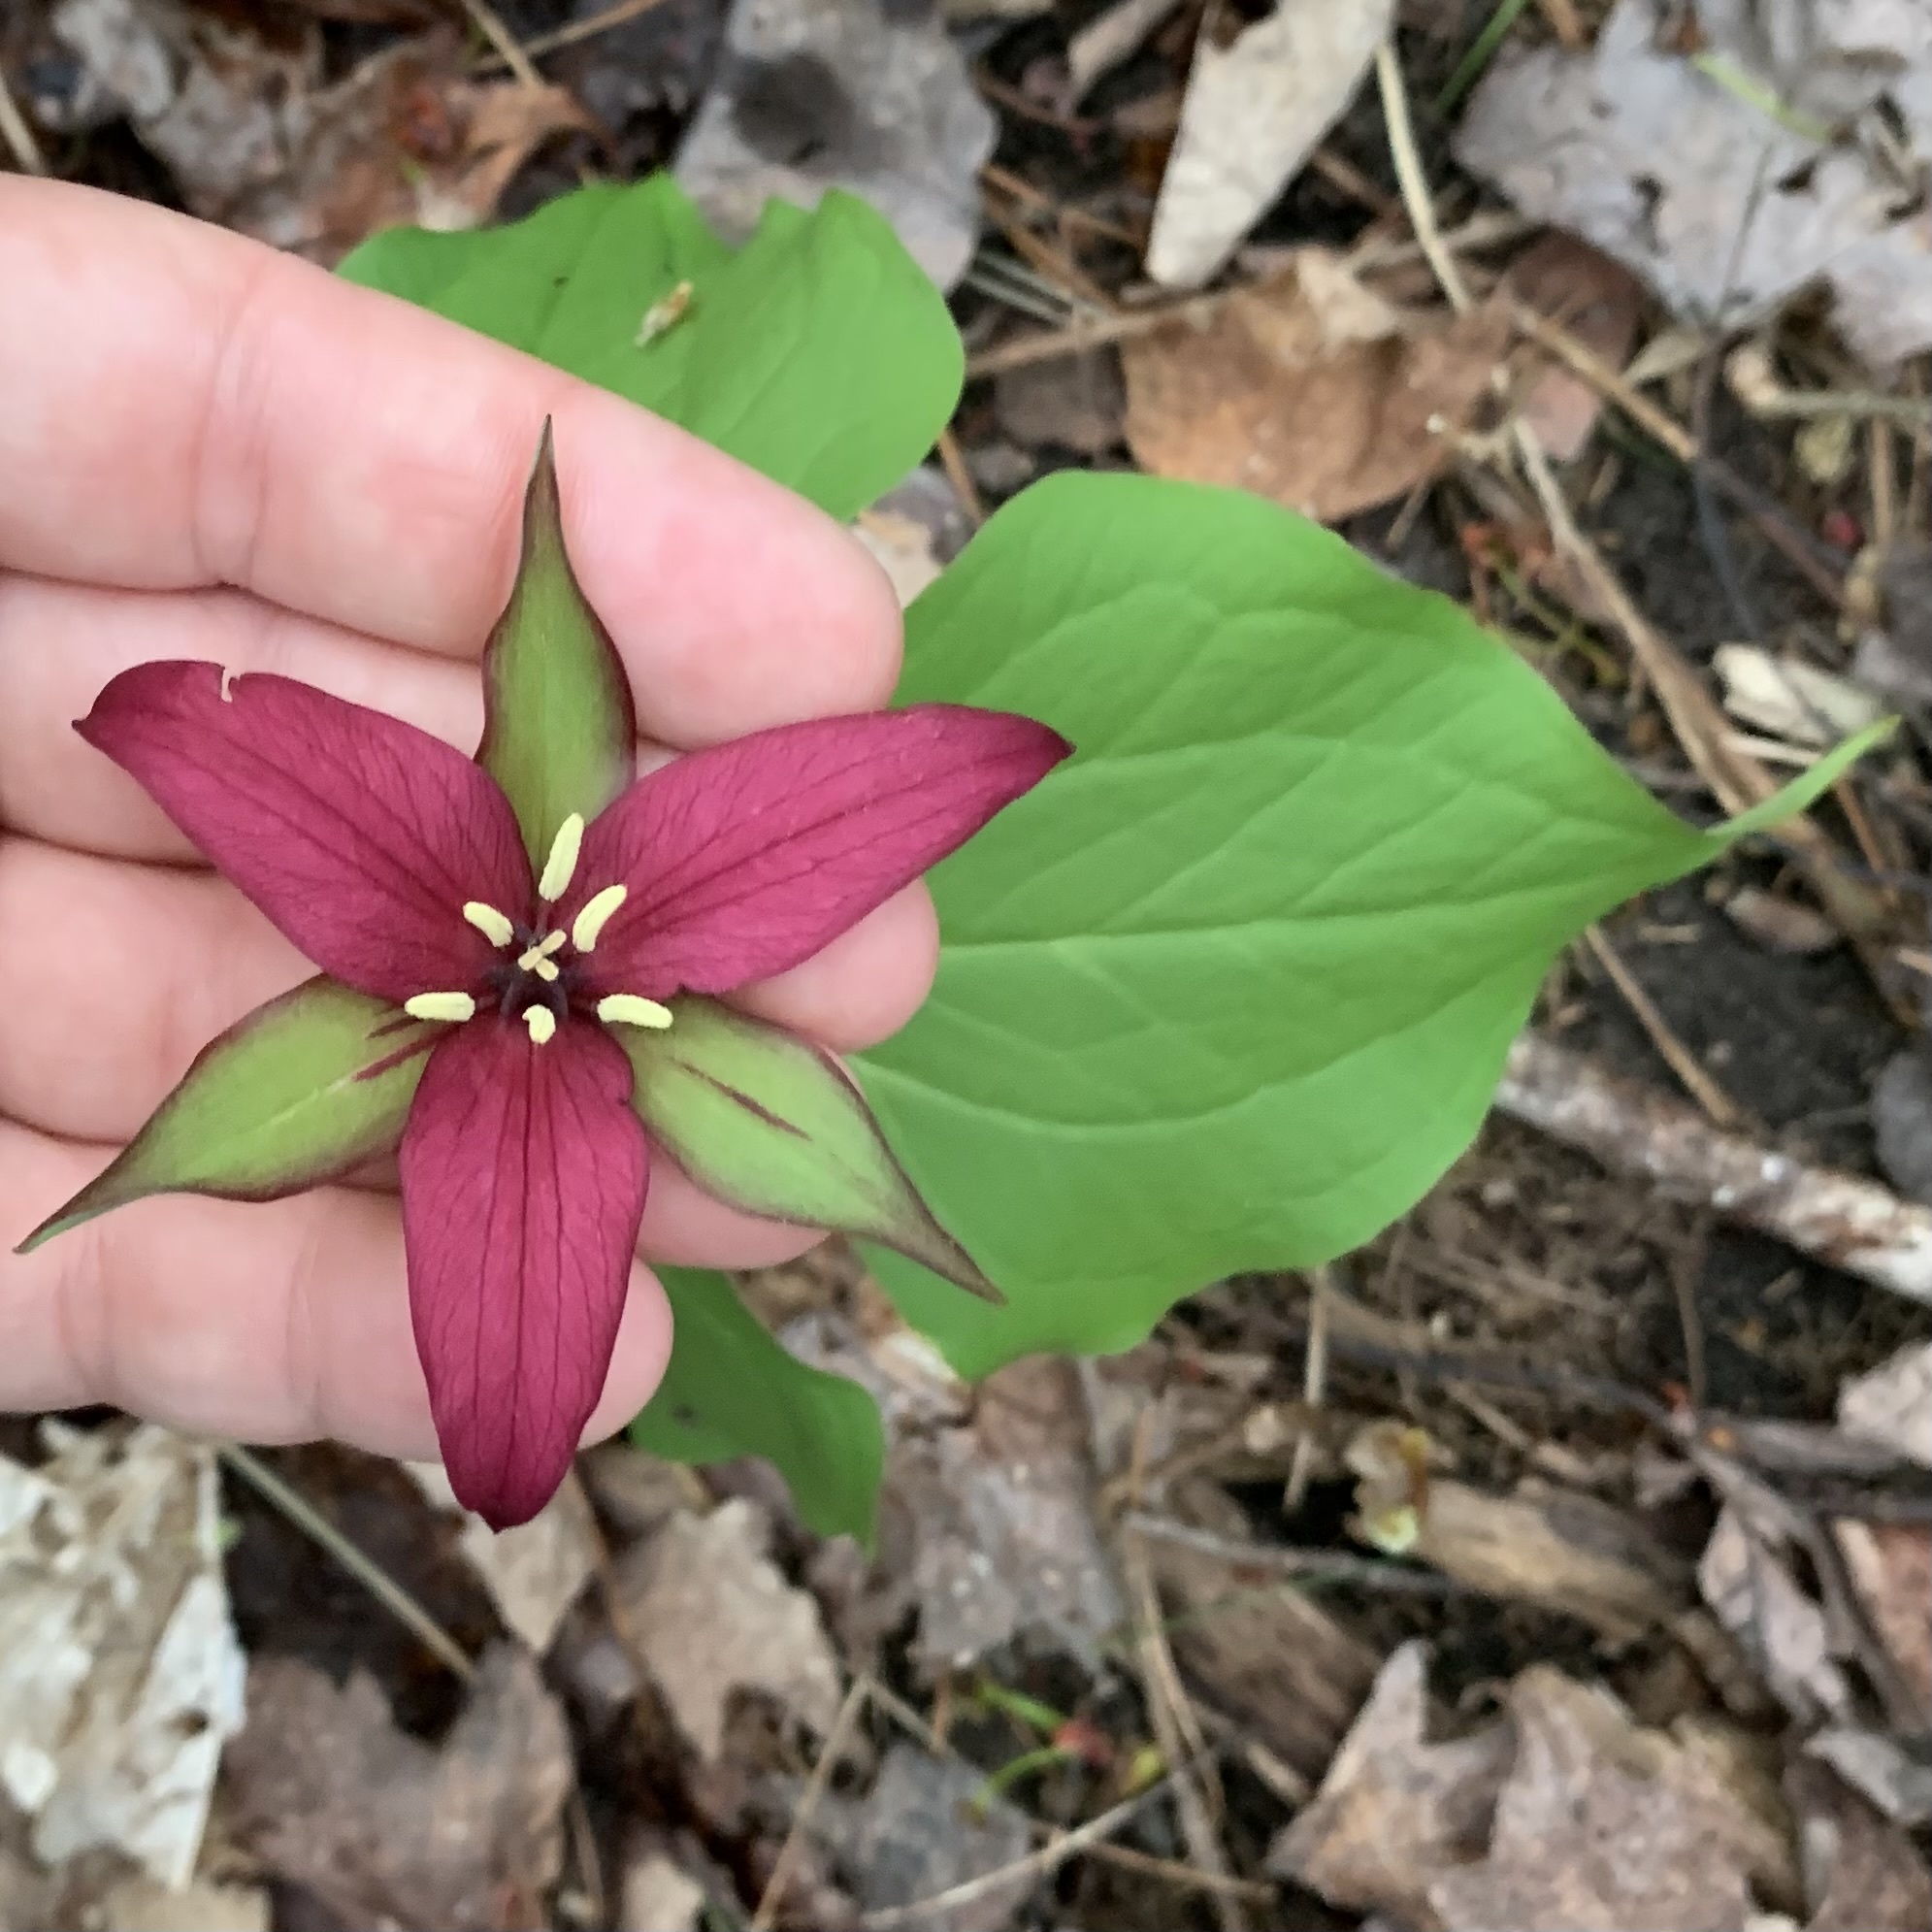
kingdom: Plantae
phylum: Tracheophyta
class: Liliopsida
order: Liliales
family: Melanthiaceae
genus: Trillium
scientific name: Trillium erectum
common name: Purple trillium
